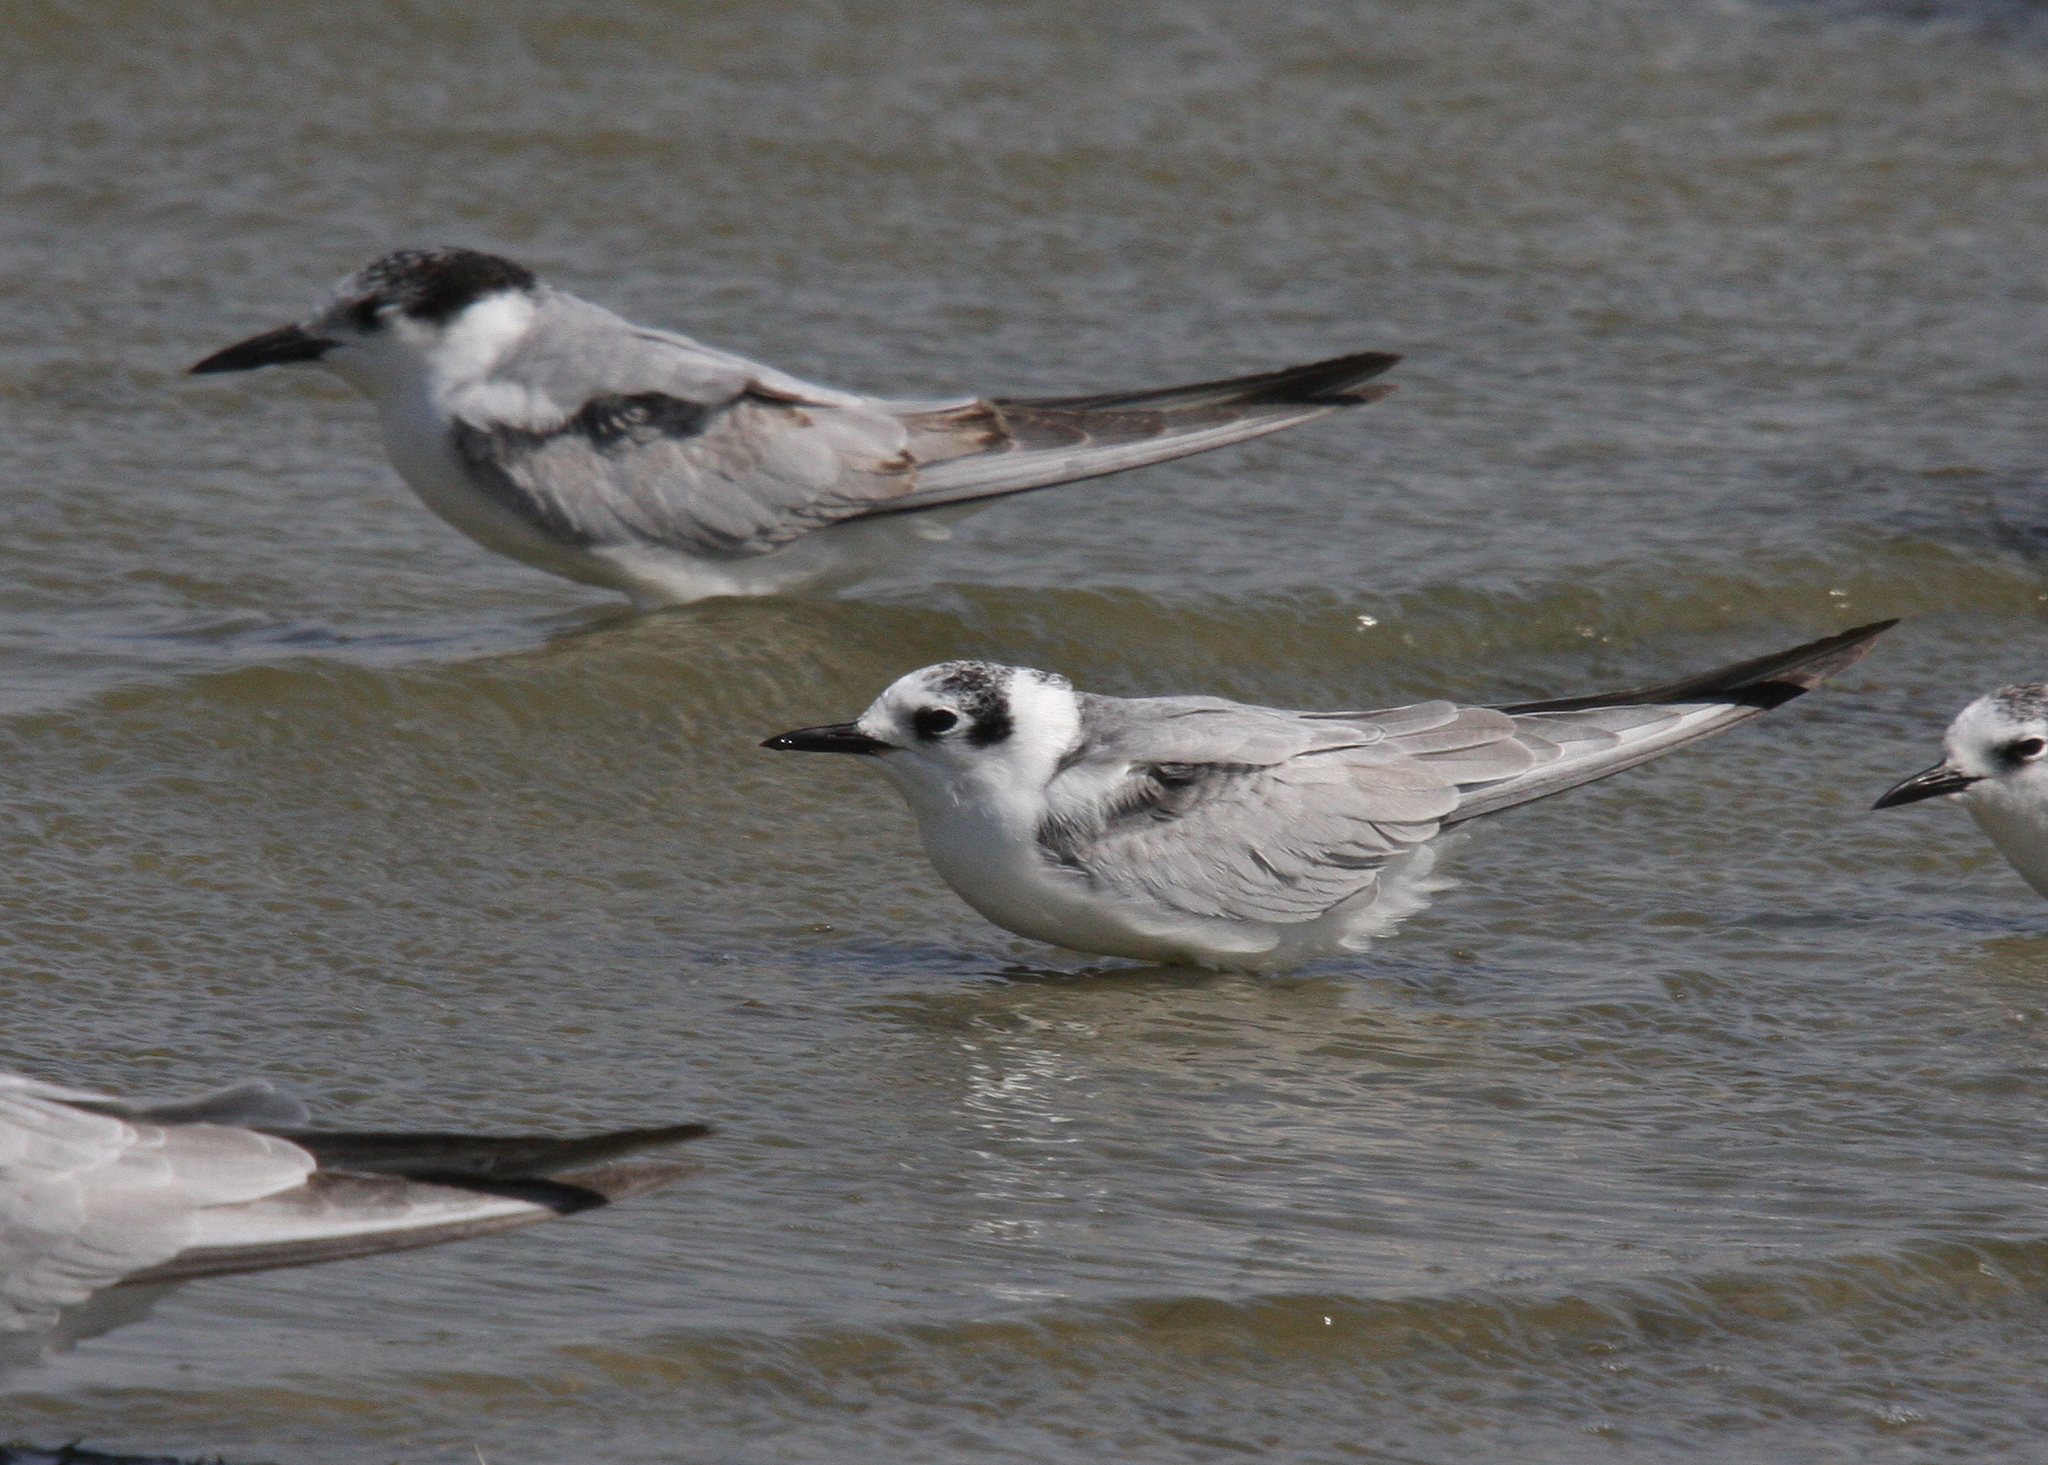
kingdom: Animalia
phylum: Chordata
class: Aves
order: Charadriiformes
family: Laridae
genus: Chlidonias
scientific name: Chlidonias leucopterus
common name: White-winged tern
